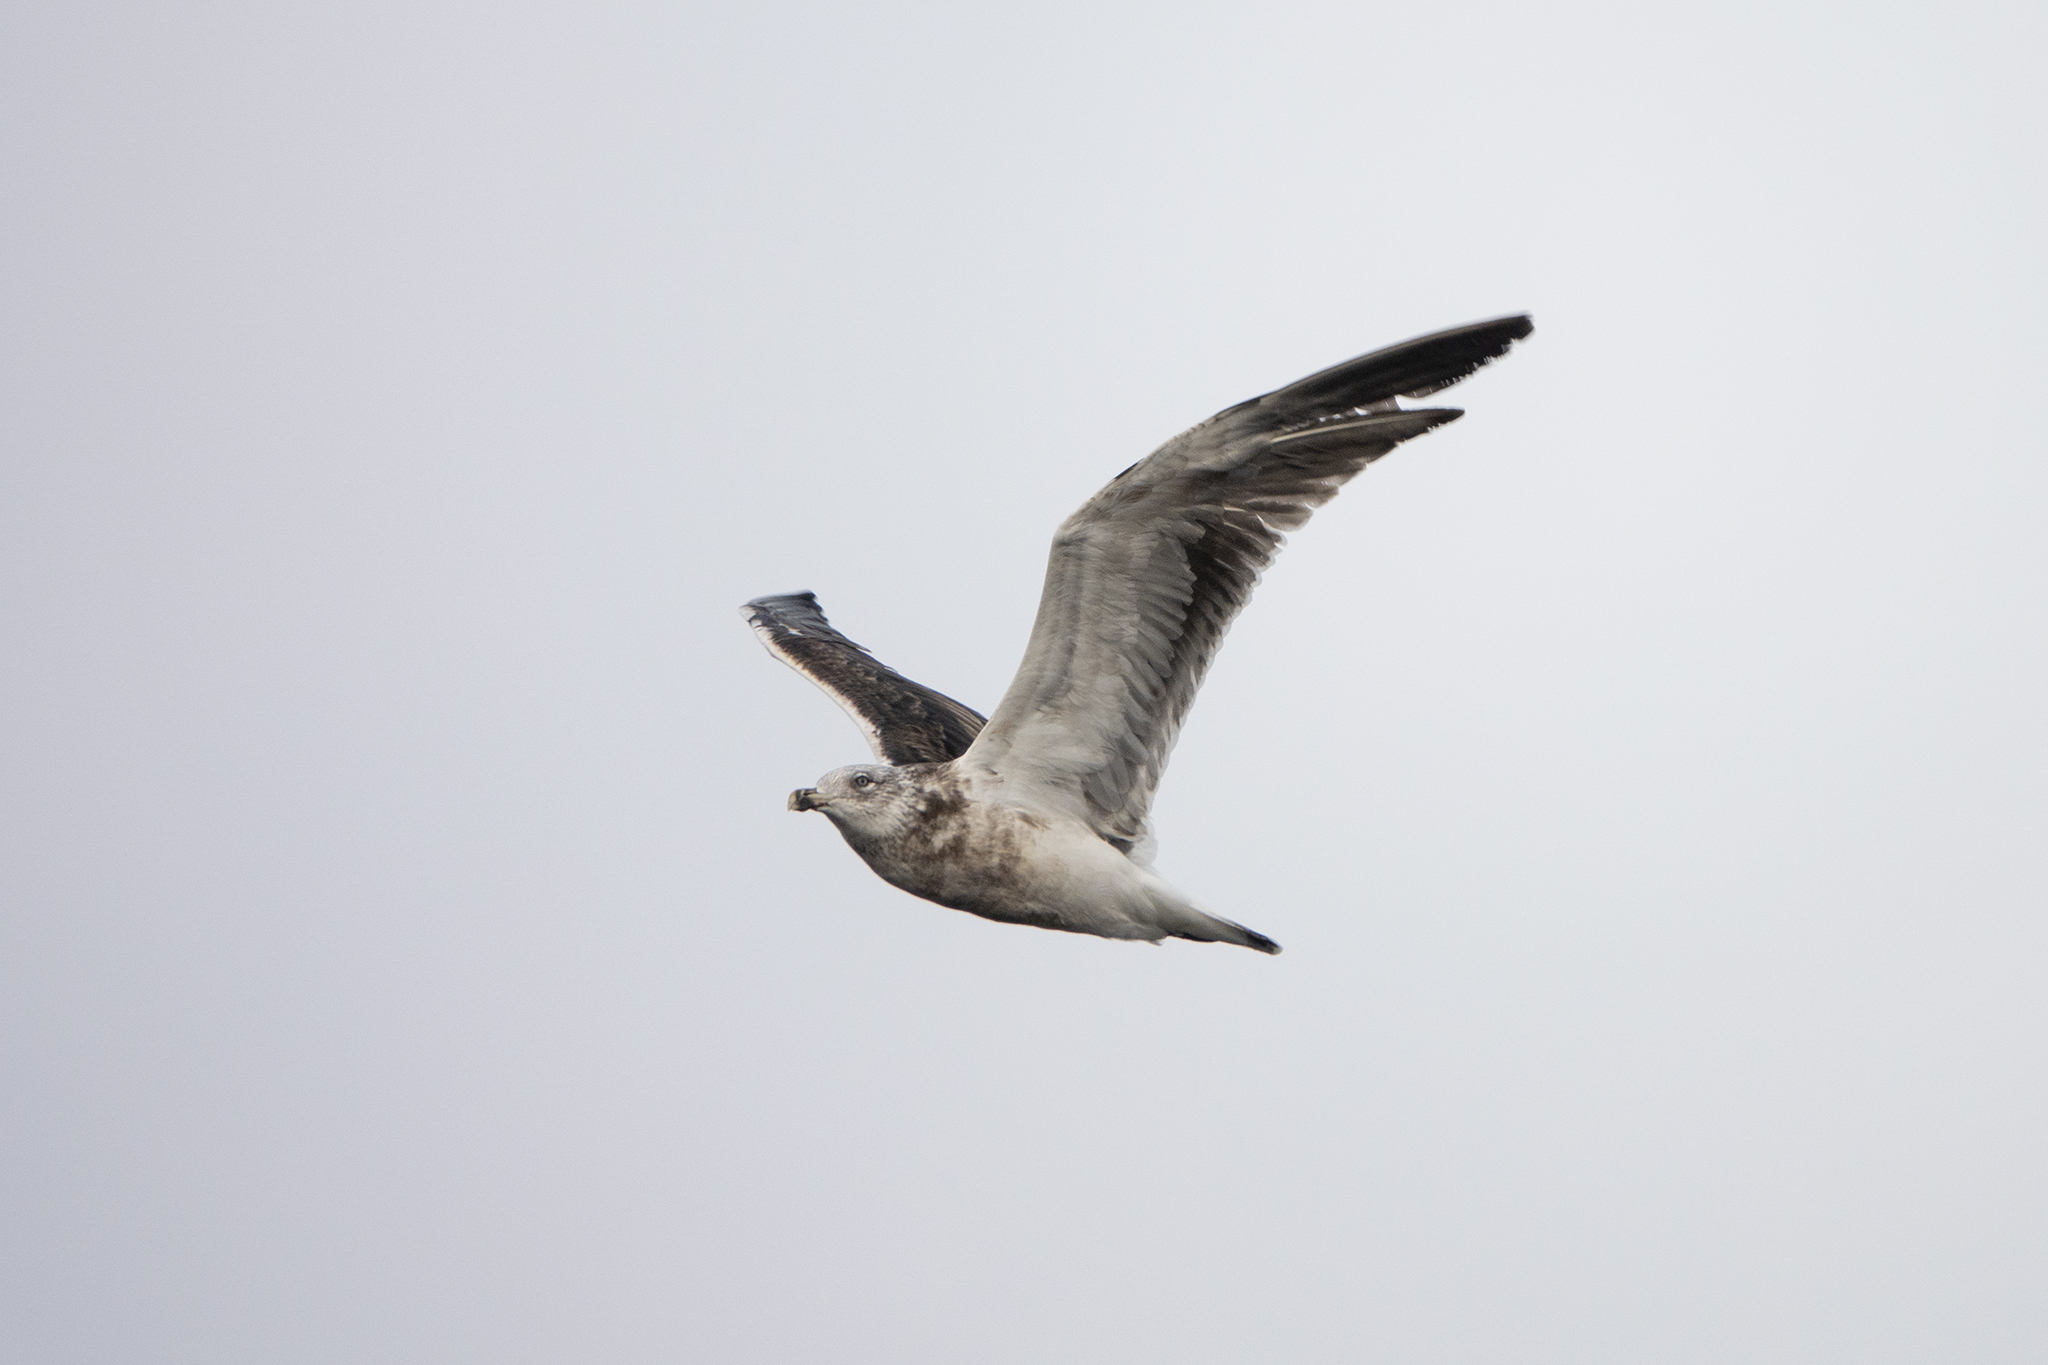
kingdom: Animalia
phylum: Chordata
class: Aves
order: Charadriiformes
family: Laridae
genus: Larus
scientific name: Larus dominicanus
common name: Kelp gull
